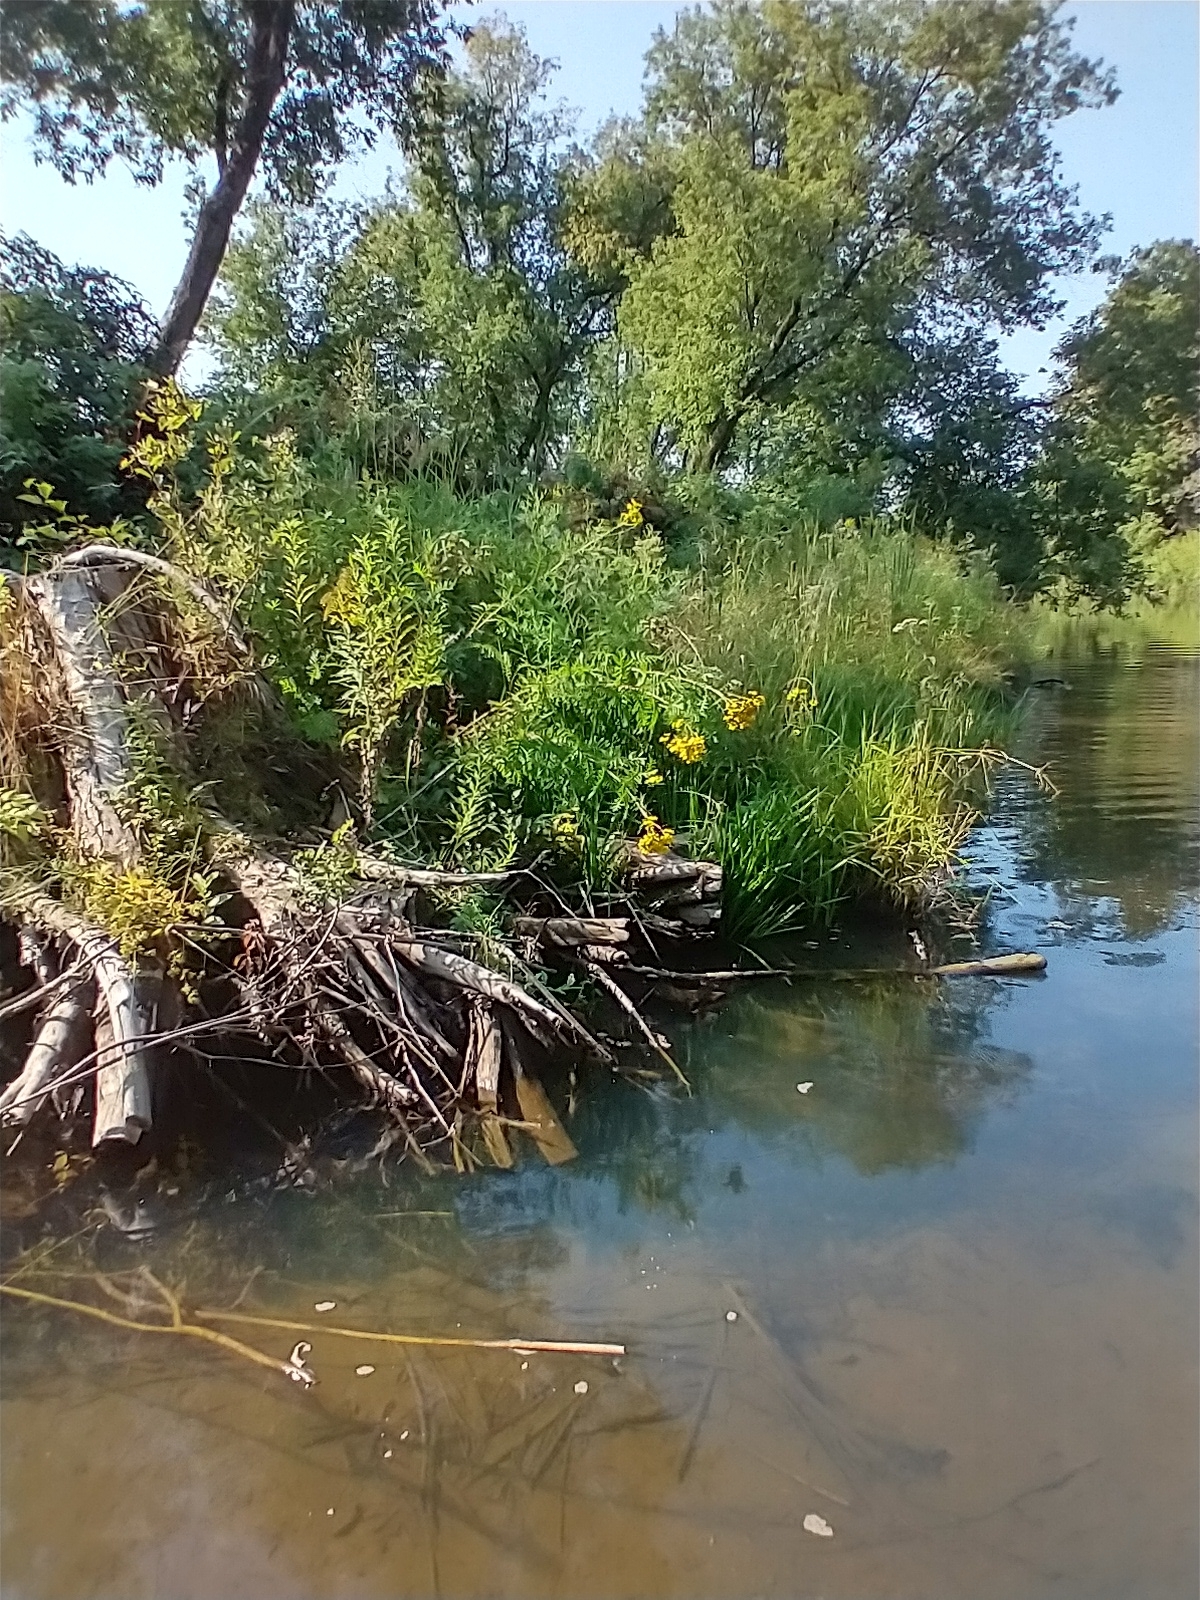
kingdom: Plantae
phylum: Tracheophyta
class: Magnoliopsida
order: Asterales
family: Asteraceae
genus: Tanacetum
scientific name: Tanacetum vulgare
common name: Common tansy
